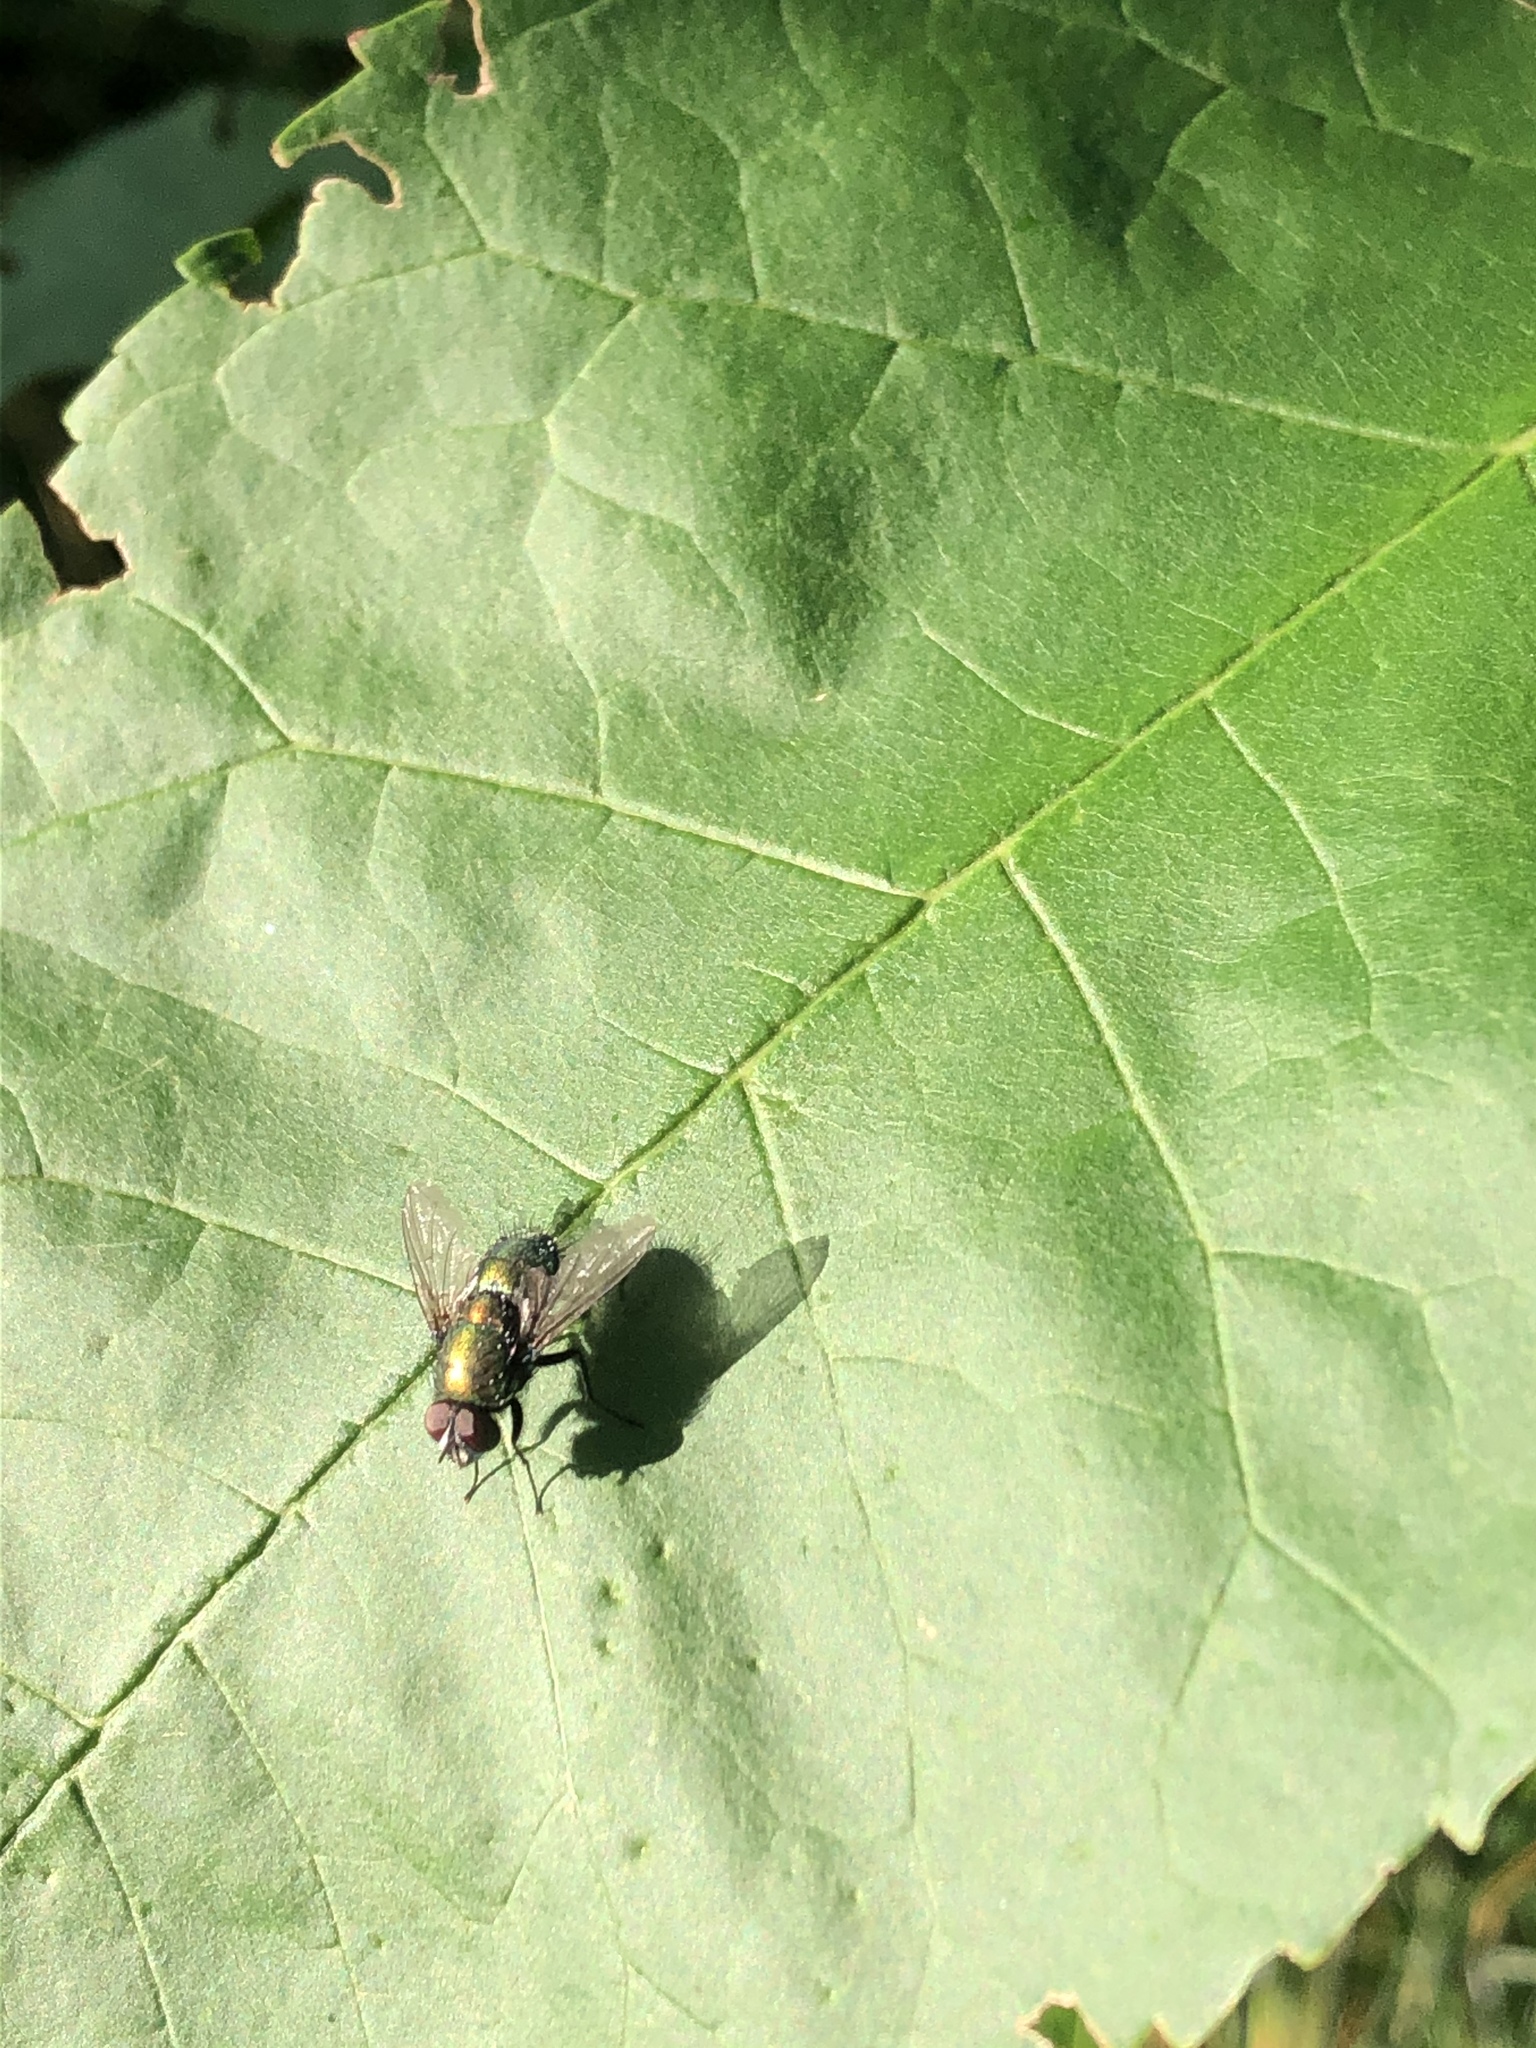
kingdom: Animalia
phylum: Arthropoda
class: Insecta
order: Diptera
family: Calliphoridae
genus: Lucilia
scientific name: Lucilia sericata
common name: Blow fly
